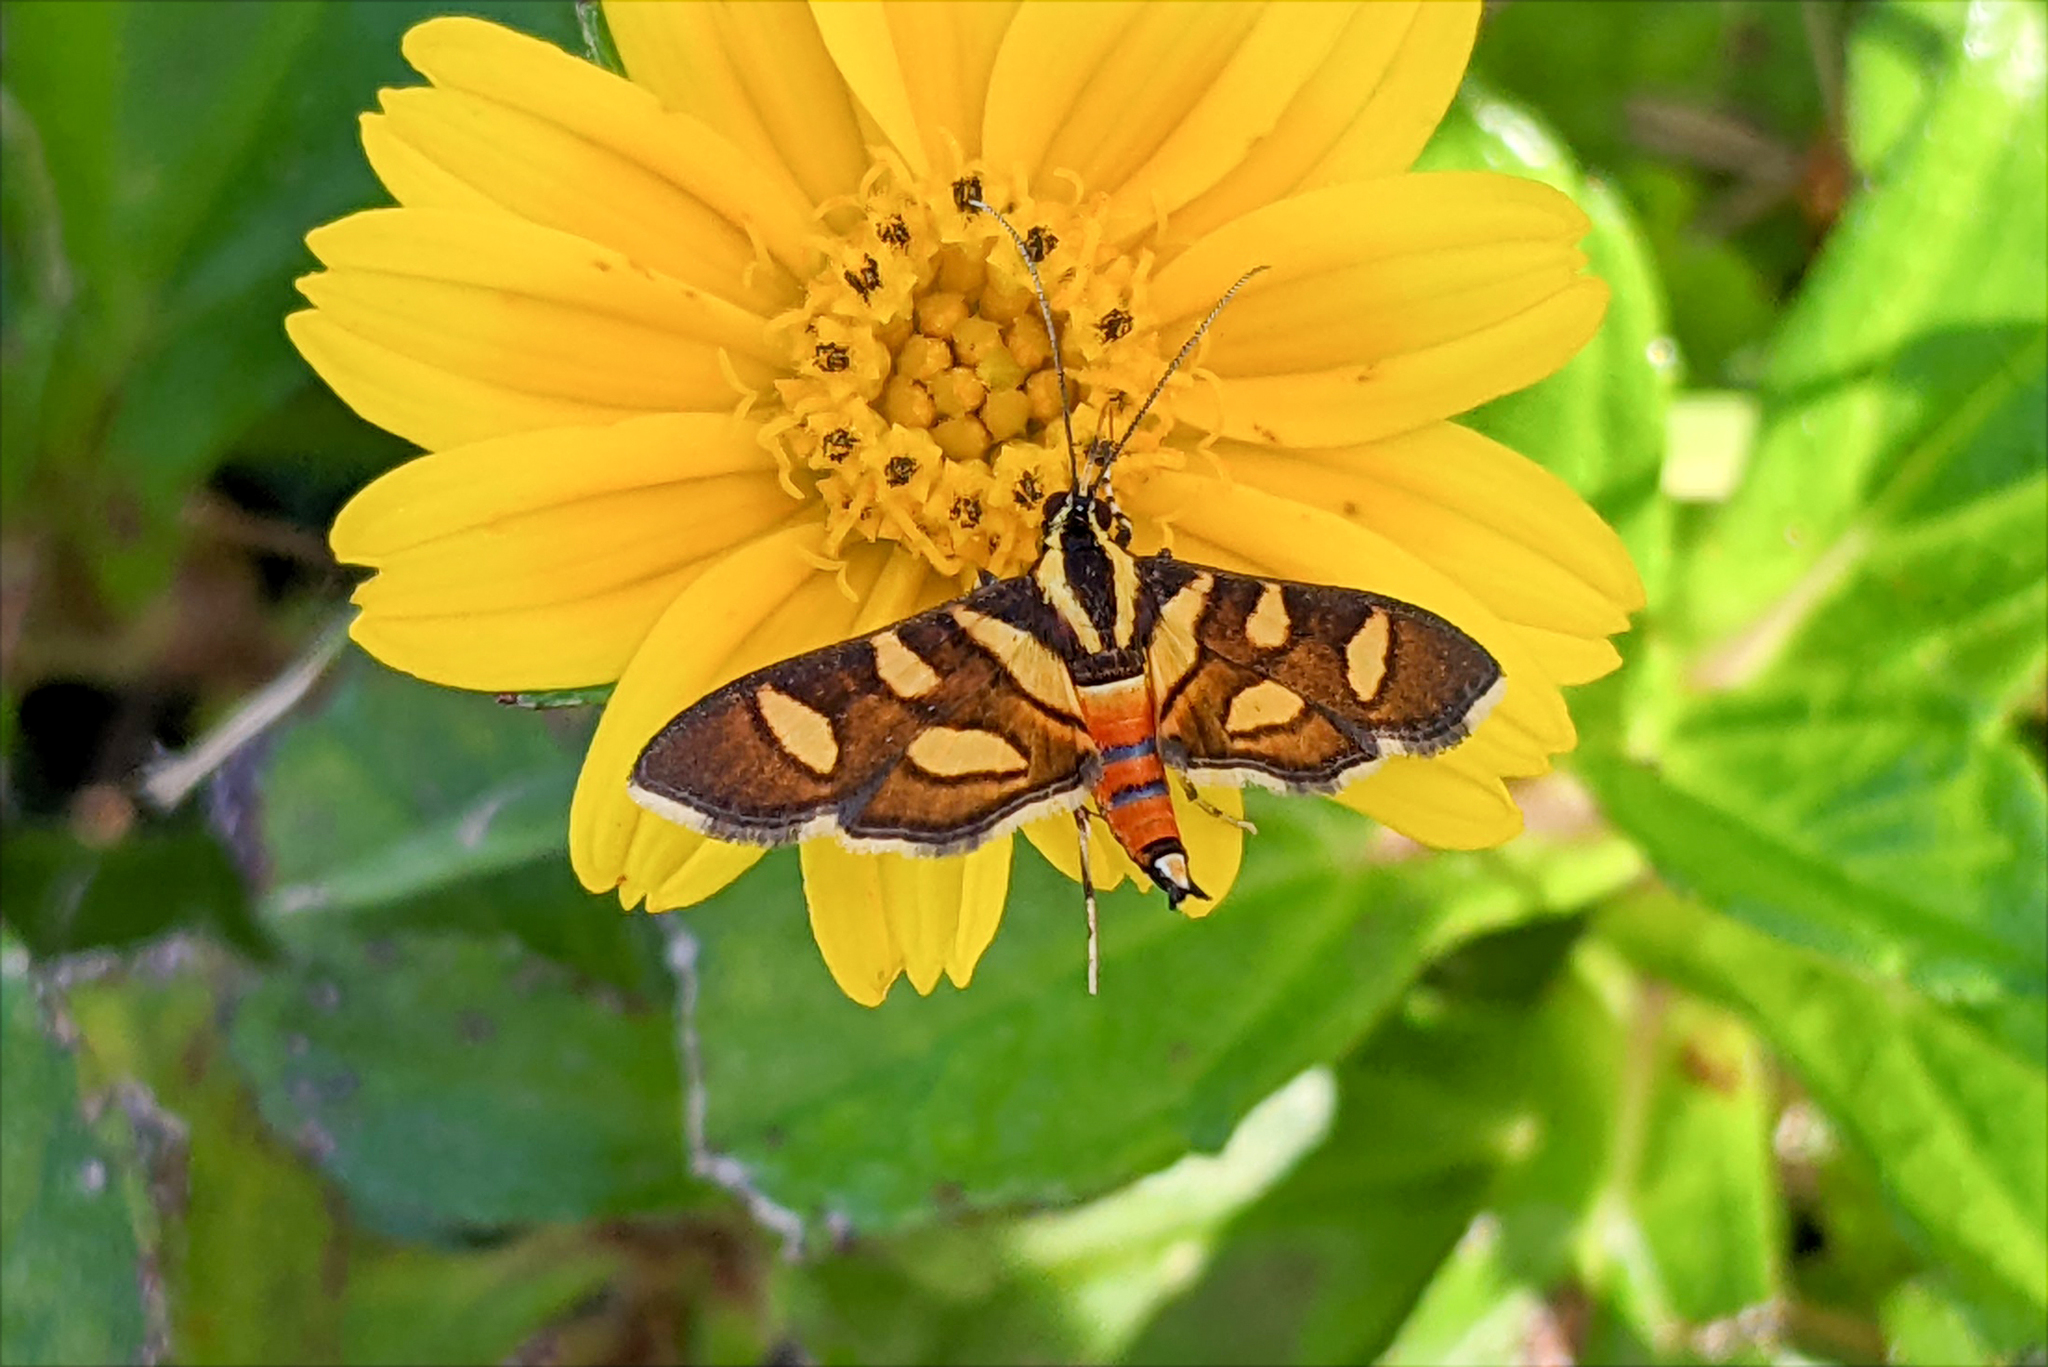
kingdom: Animalia
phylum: Arthropoda
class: Insecta
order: Lepidoptera
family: Crambidae
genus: Syngamia
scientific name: Syngamia florella
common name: Orange-spotted flower moth
